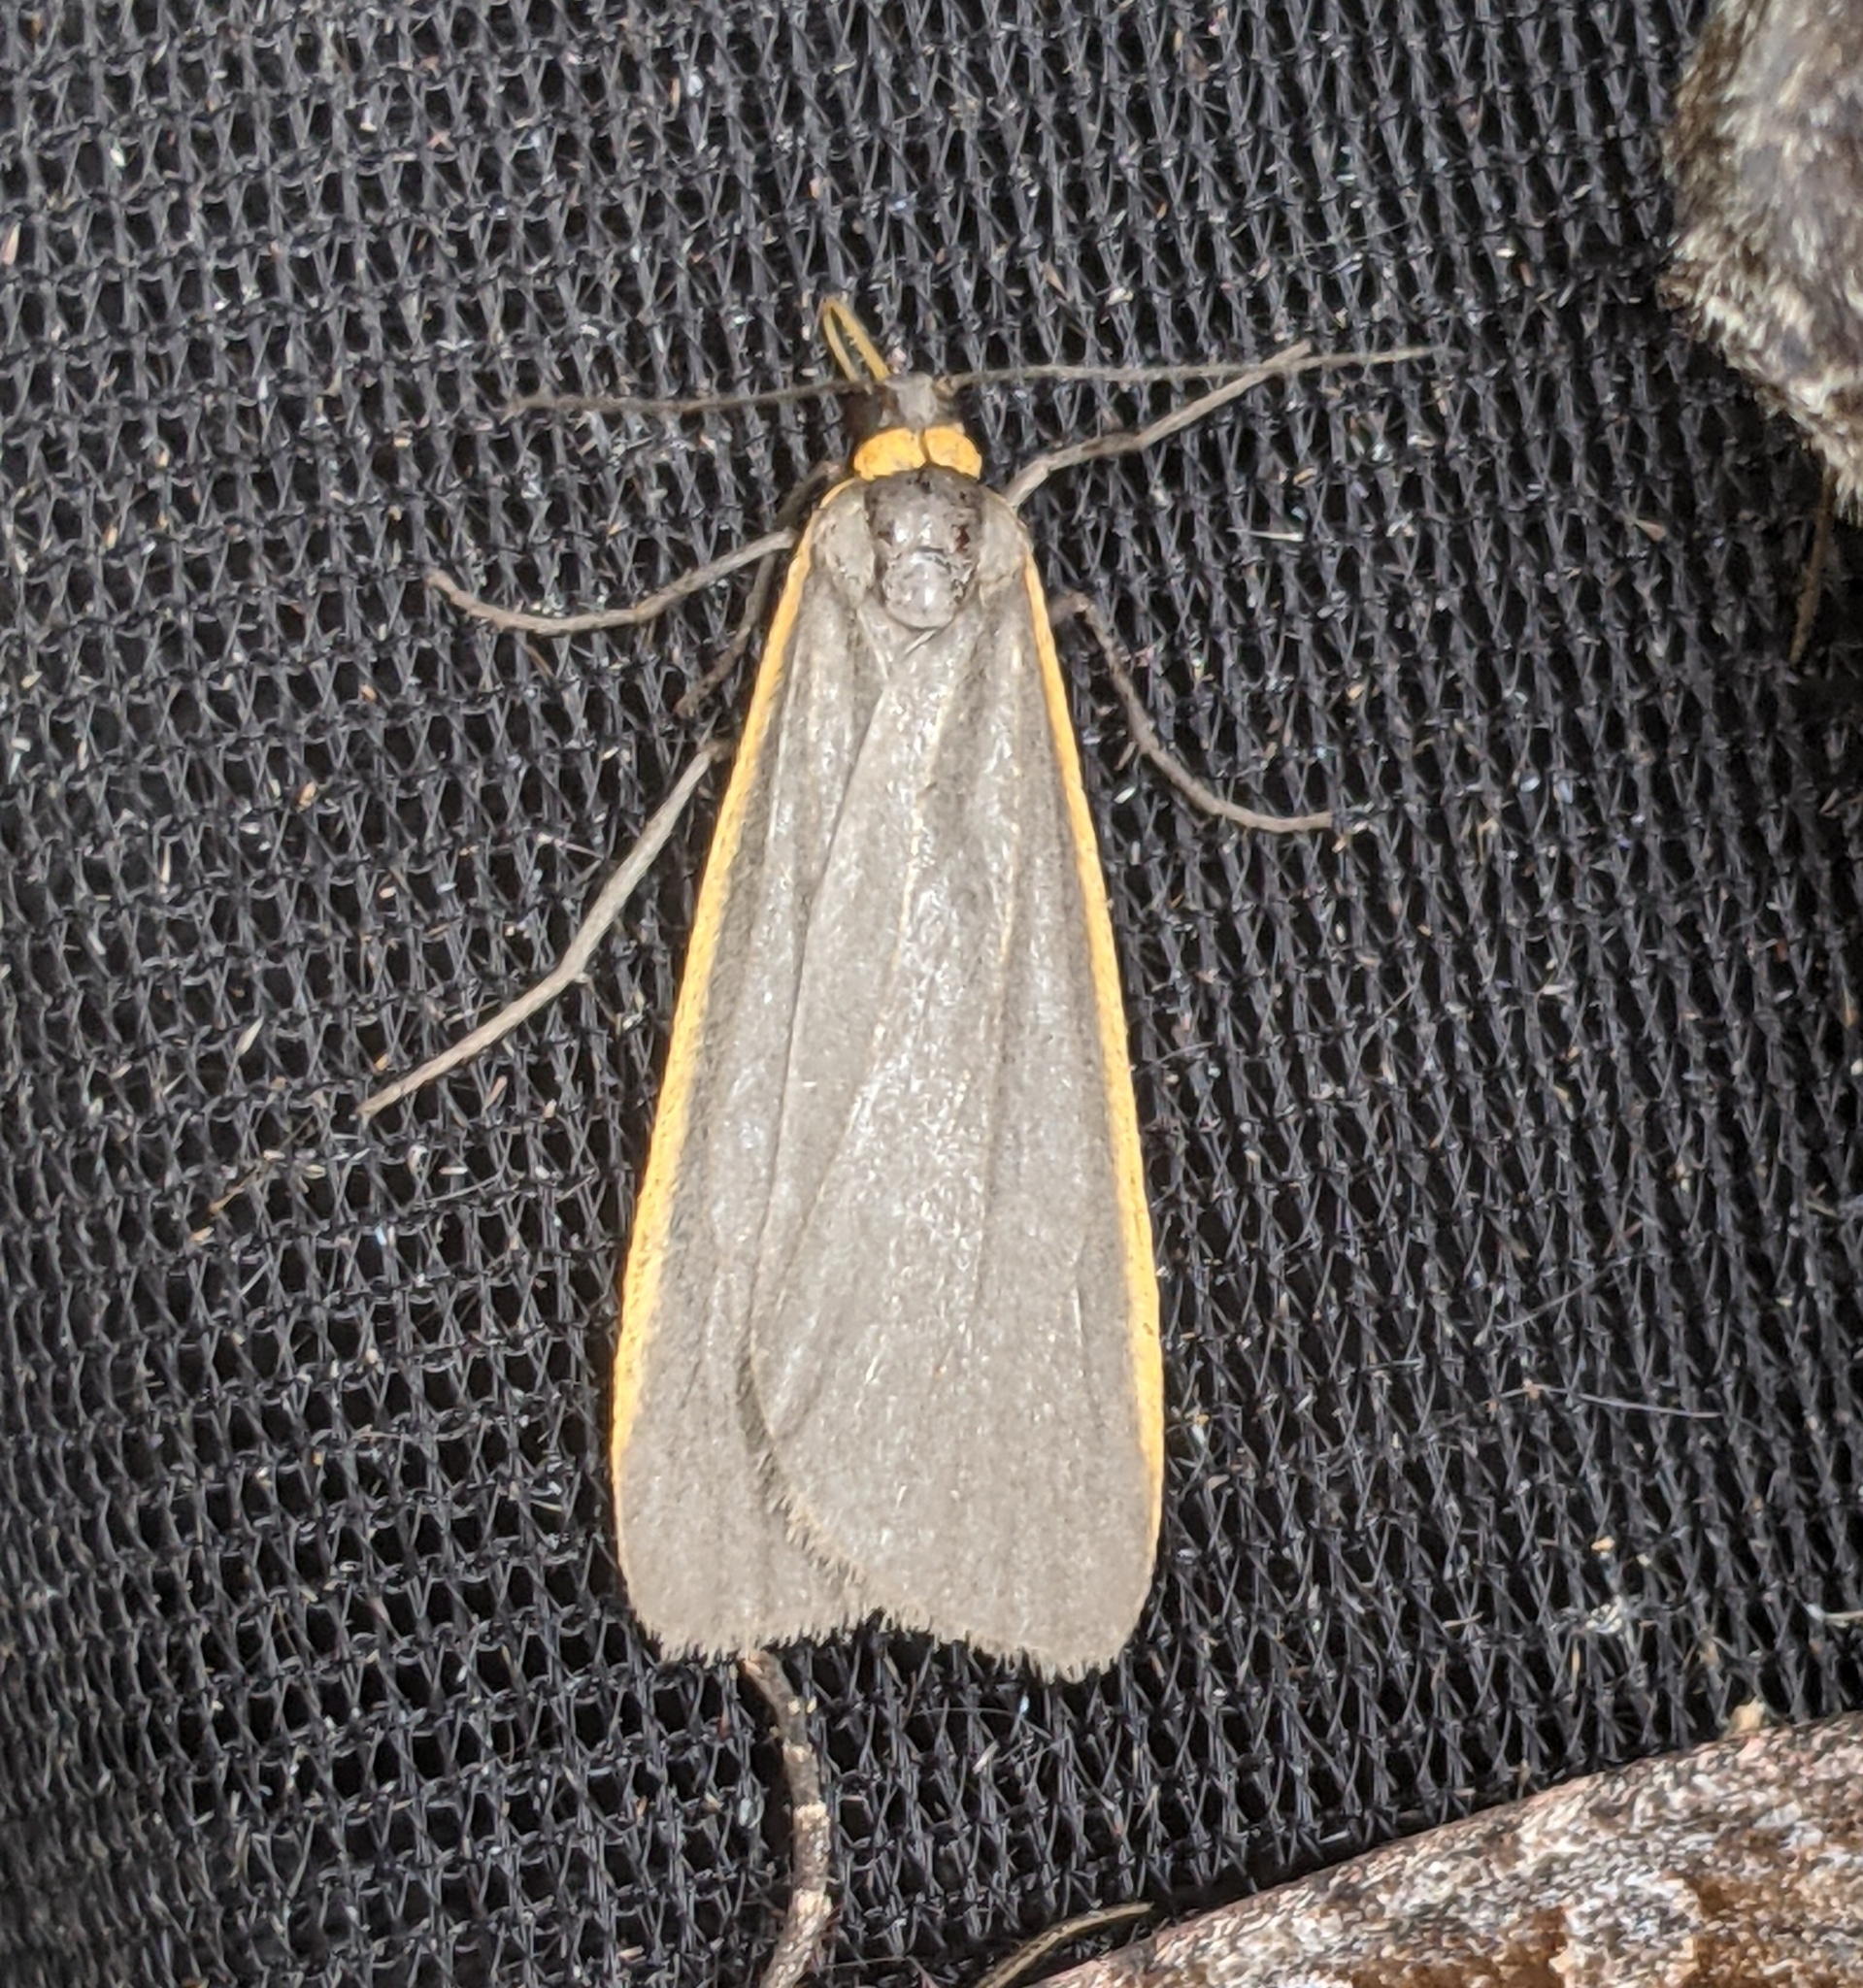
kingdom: Animalia
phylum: Arthropoda
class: Insecta
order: Lepidoptera
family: Erebidae
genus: Manulea
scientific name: Manulea bicolor
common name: Bicolored moth
